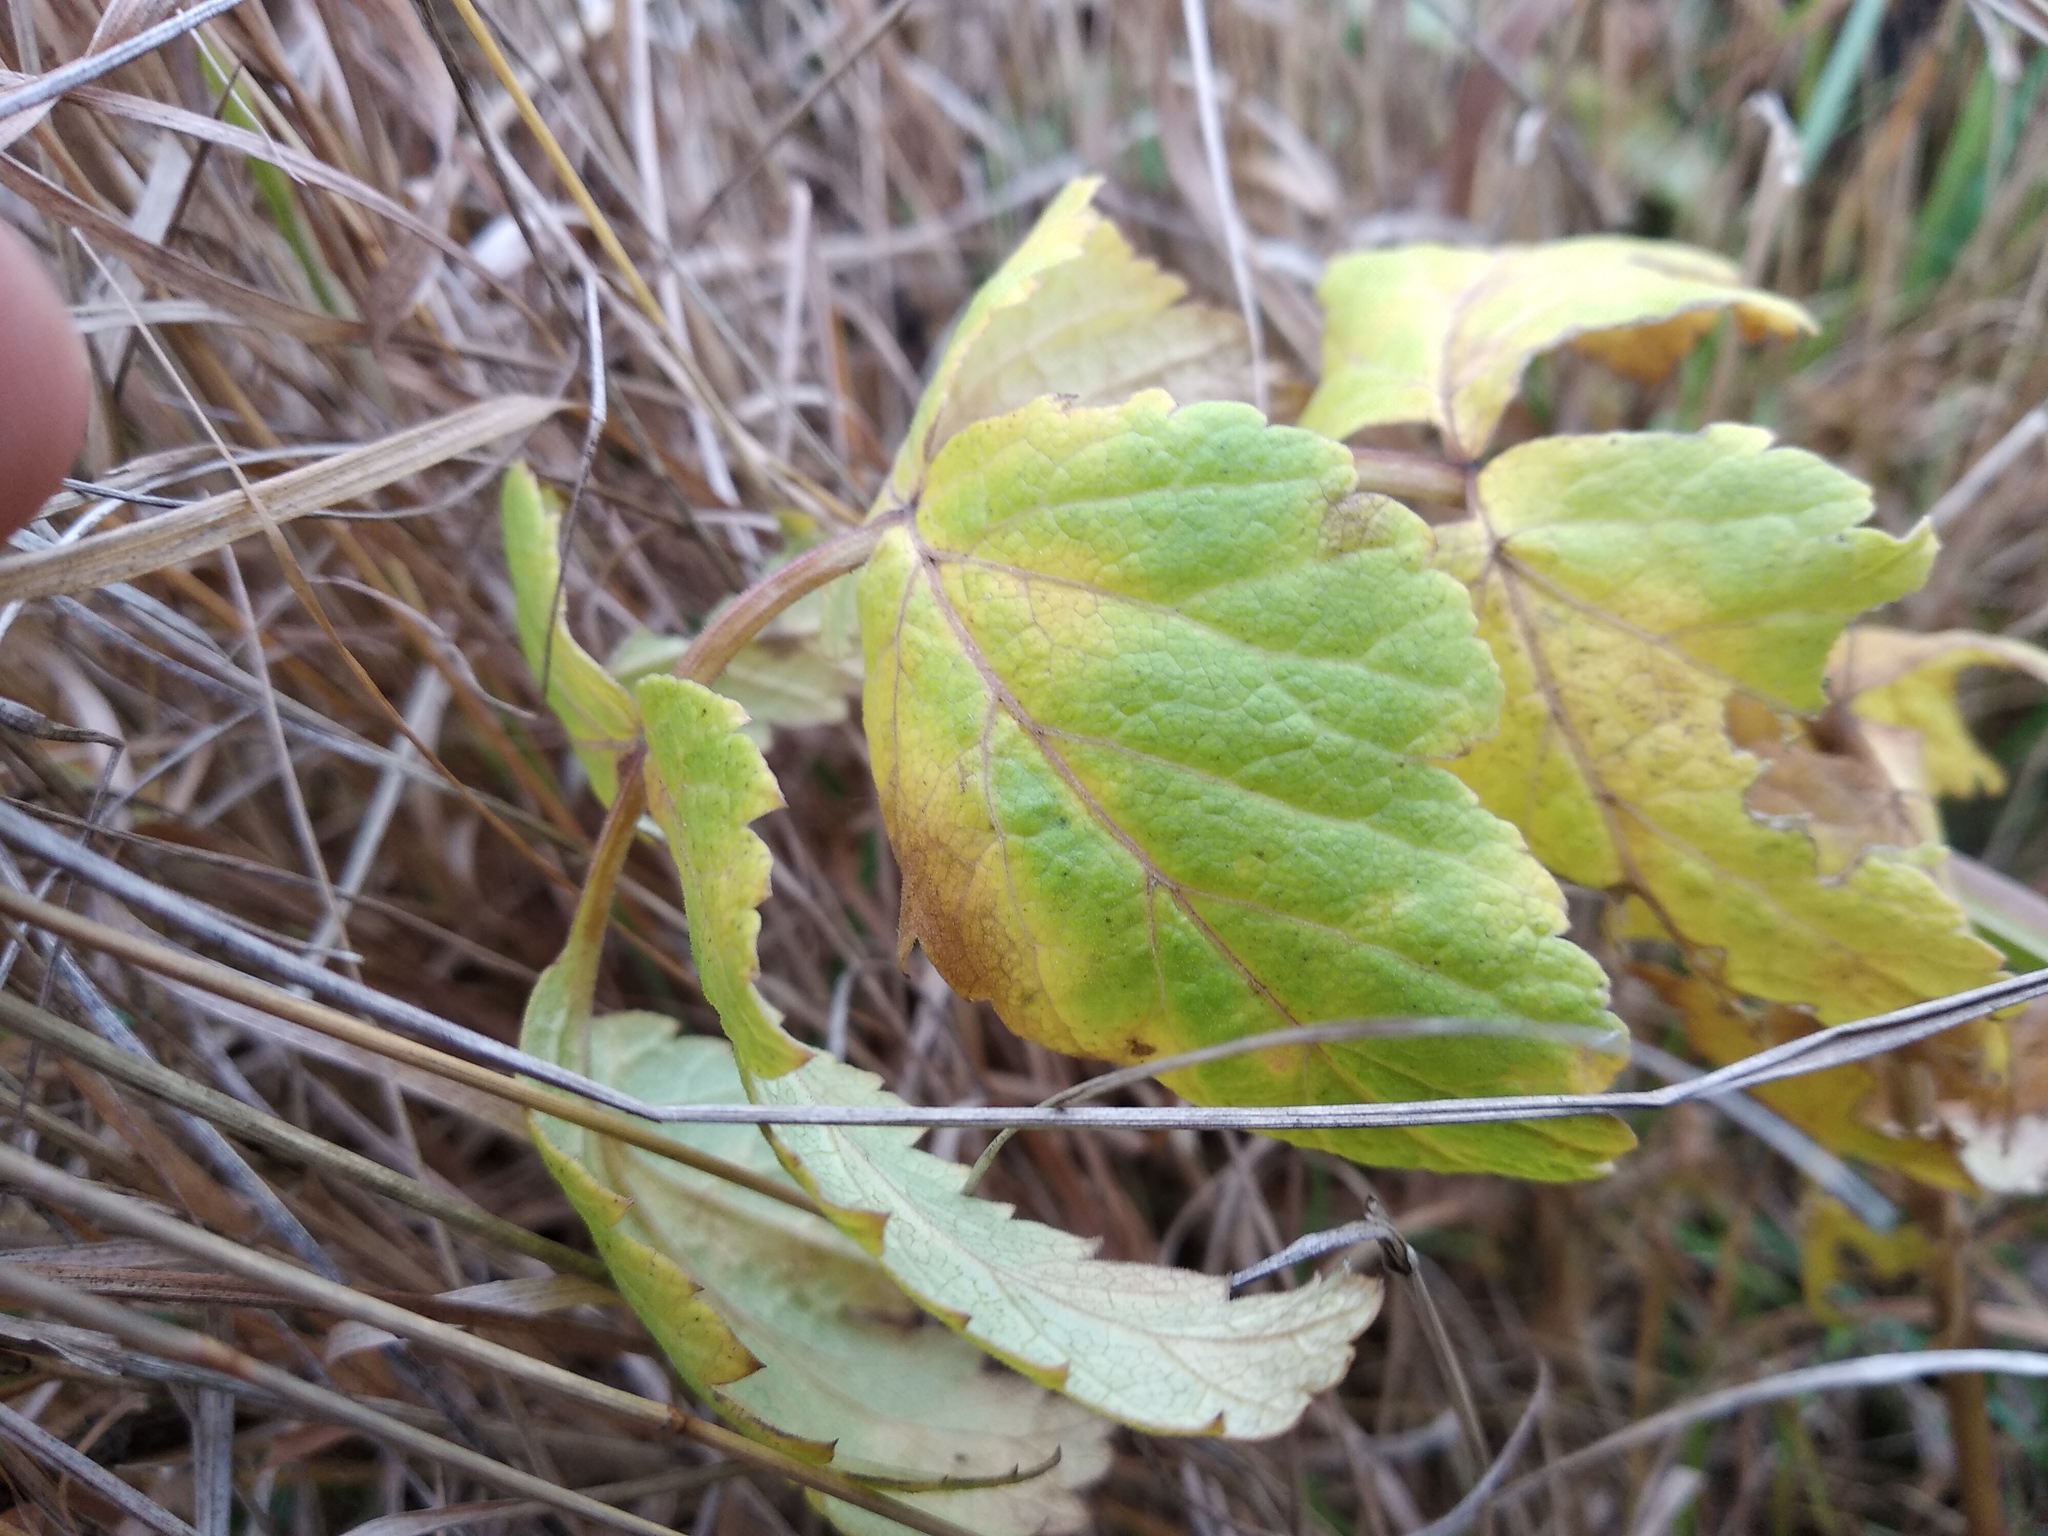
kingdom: Plantae
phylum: Tracheophyta
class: Magnoliopsida
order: Apiales
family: Apiaceae
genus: Pastinaca
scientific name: Pastinaca sativa
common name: Wild parsnip
